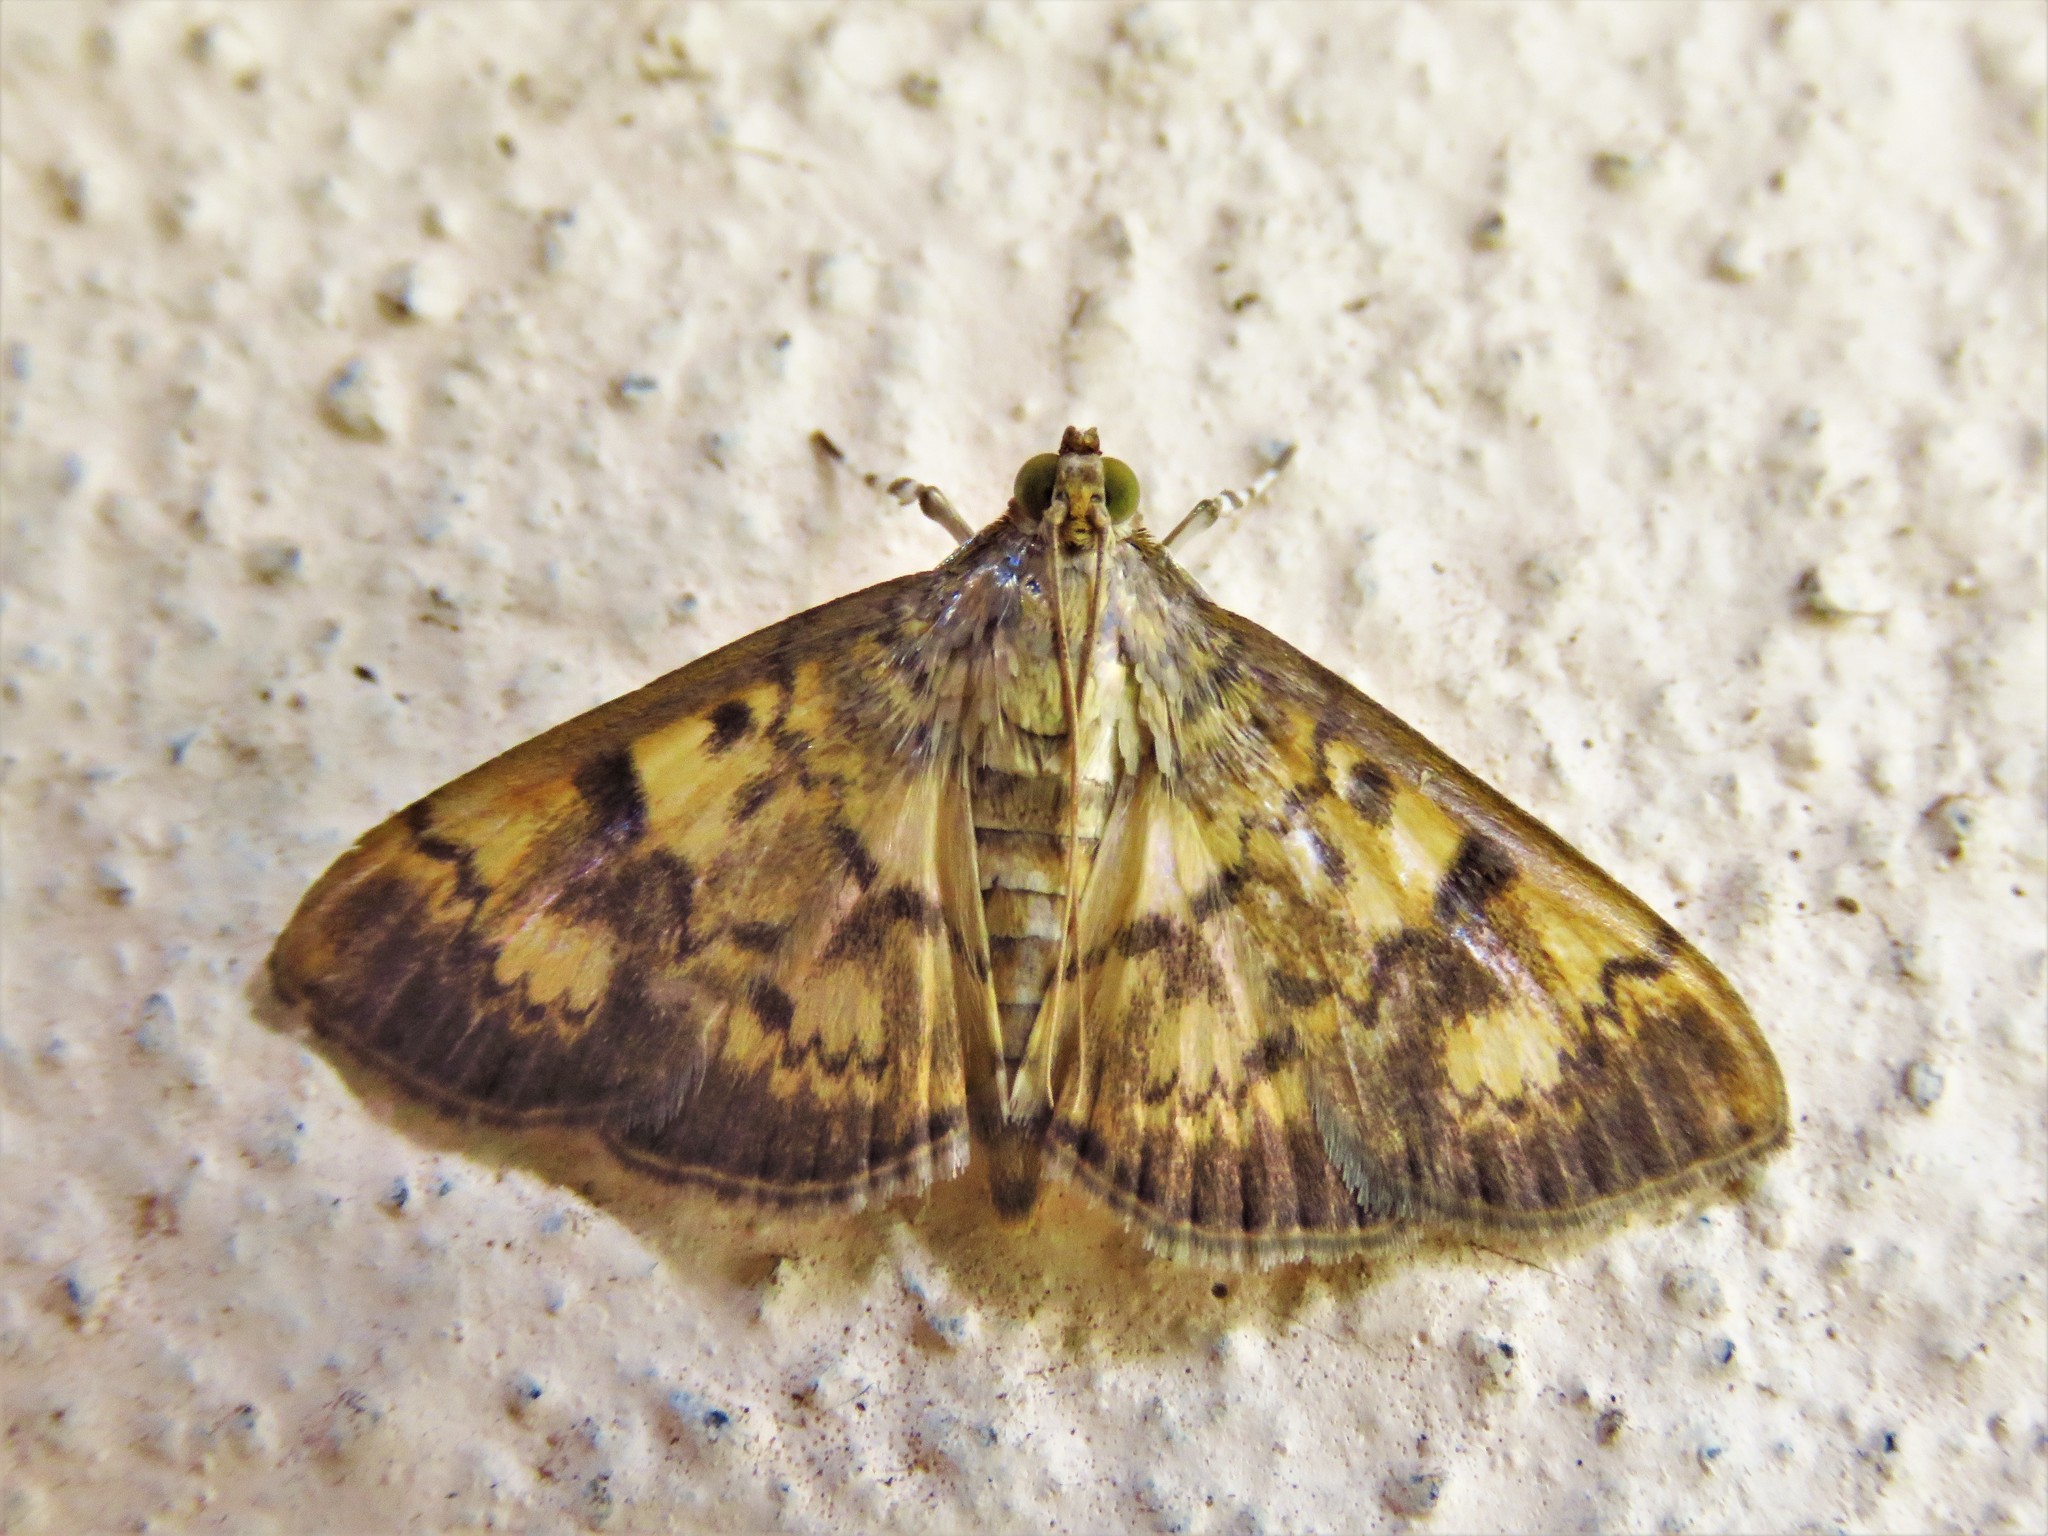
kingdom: Animalia
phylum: Arthropoda
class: Insecta
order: Lepidoptera
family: Crambidae
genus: Herpetogramma
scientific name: Herpetogramma fluctuosalis
